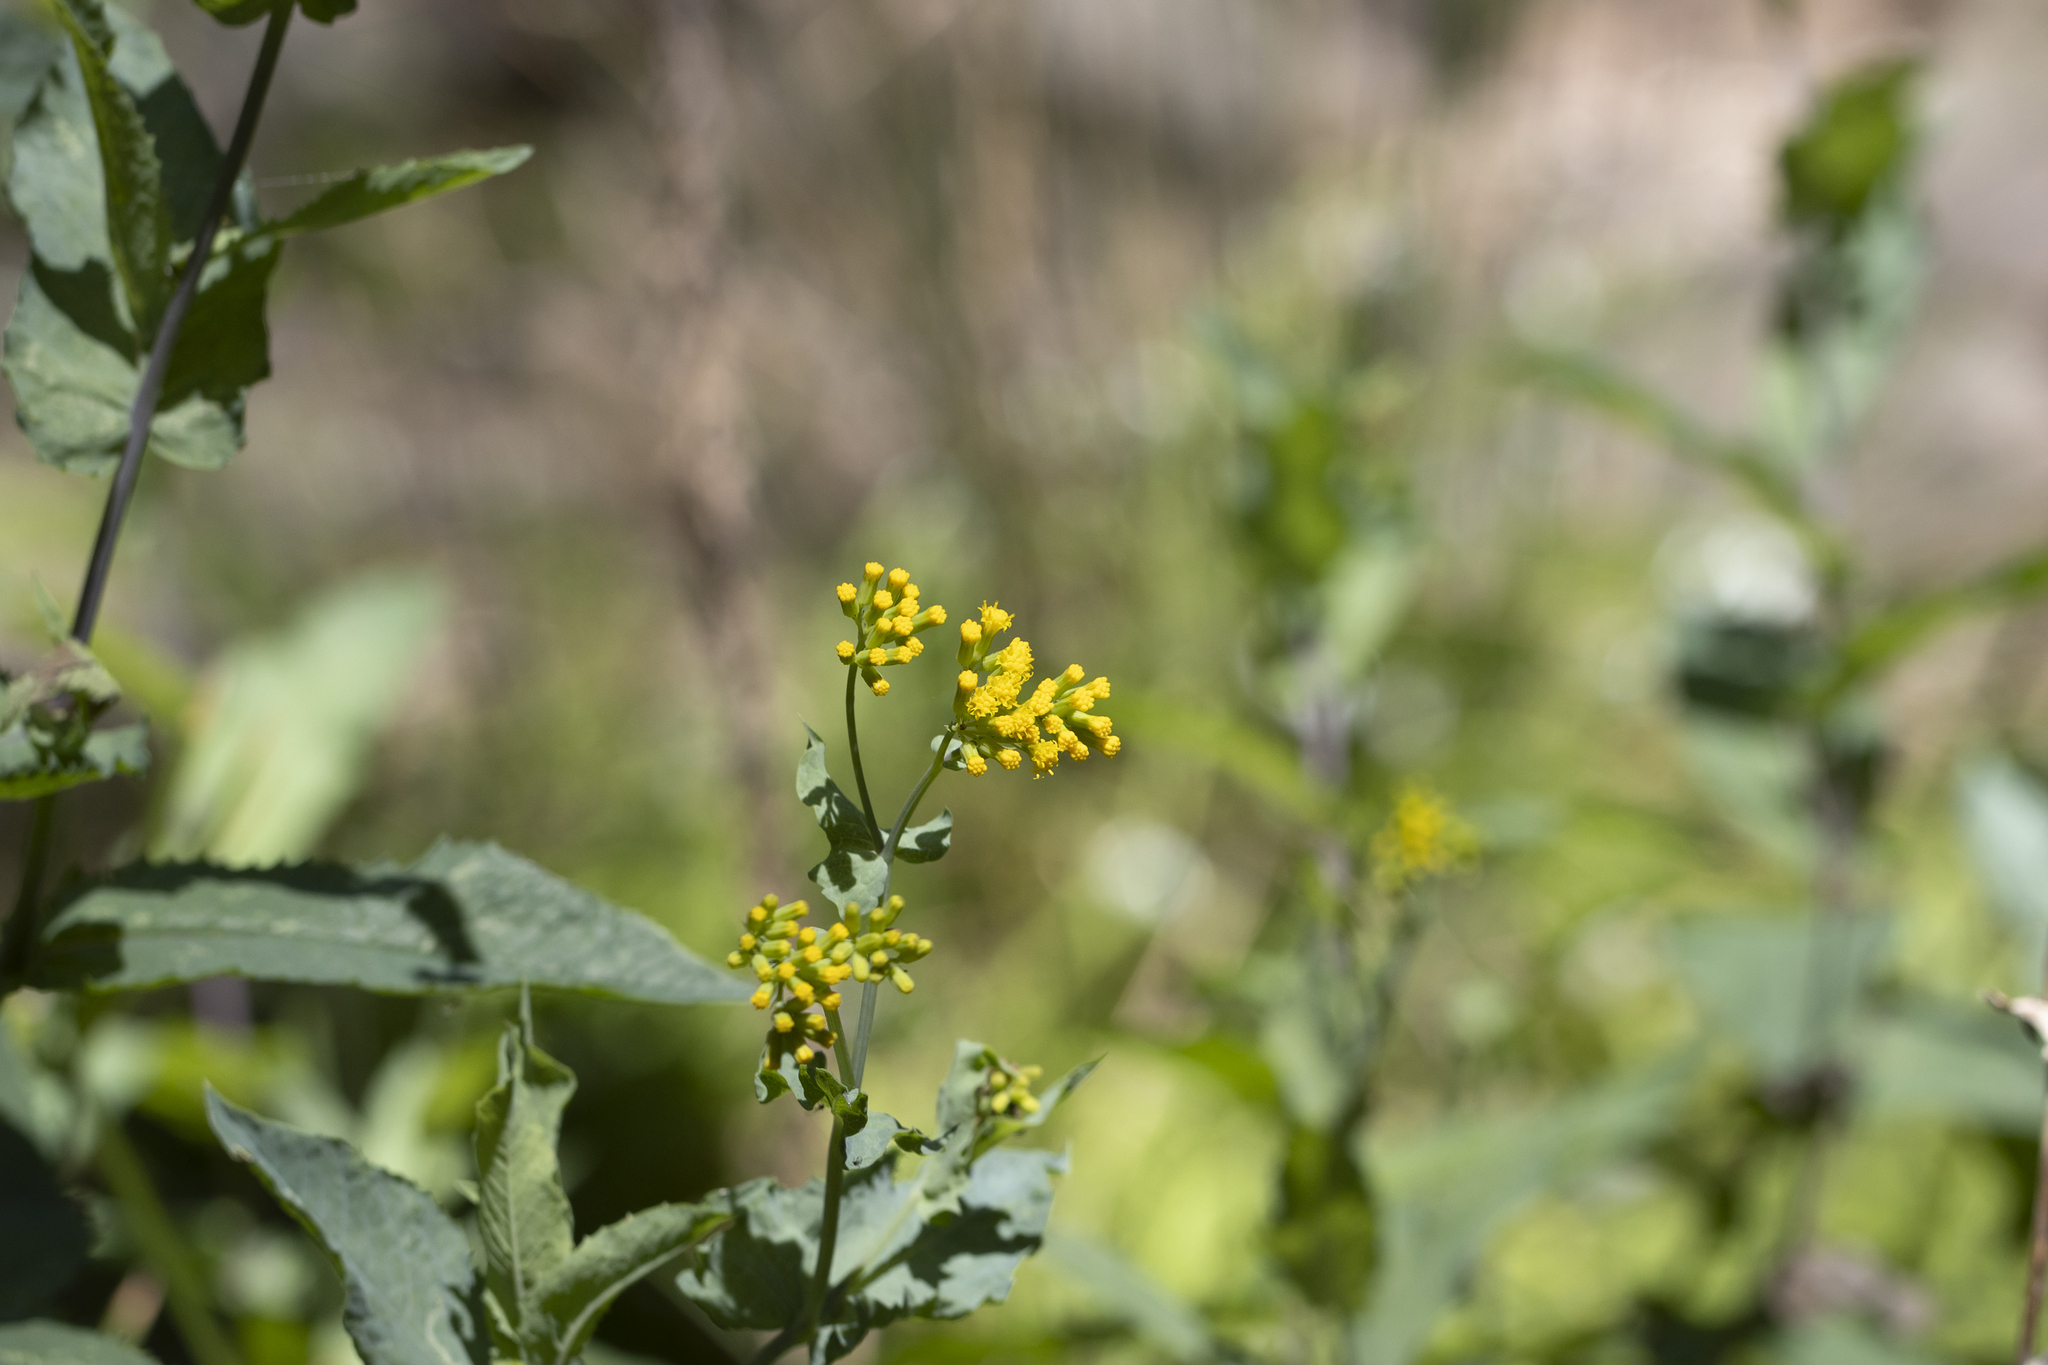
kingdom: Plantae
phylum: Tracheophyta
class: Magnoliopsida
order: Asterales
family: Asteraceae
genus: Senecio
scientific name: Senecio odoratus
